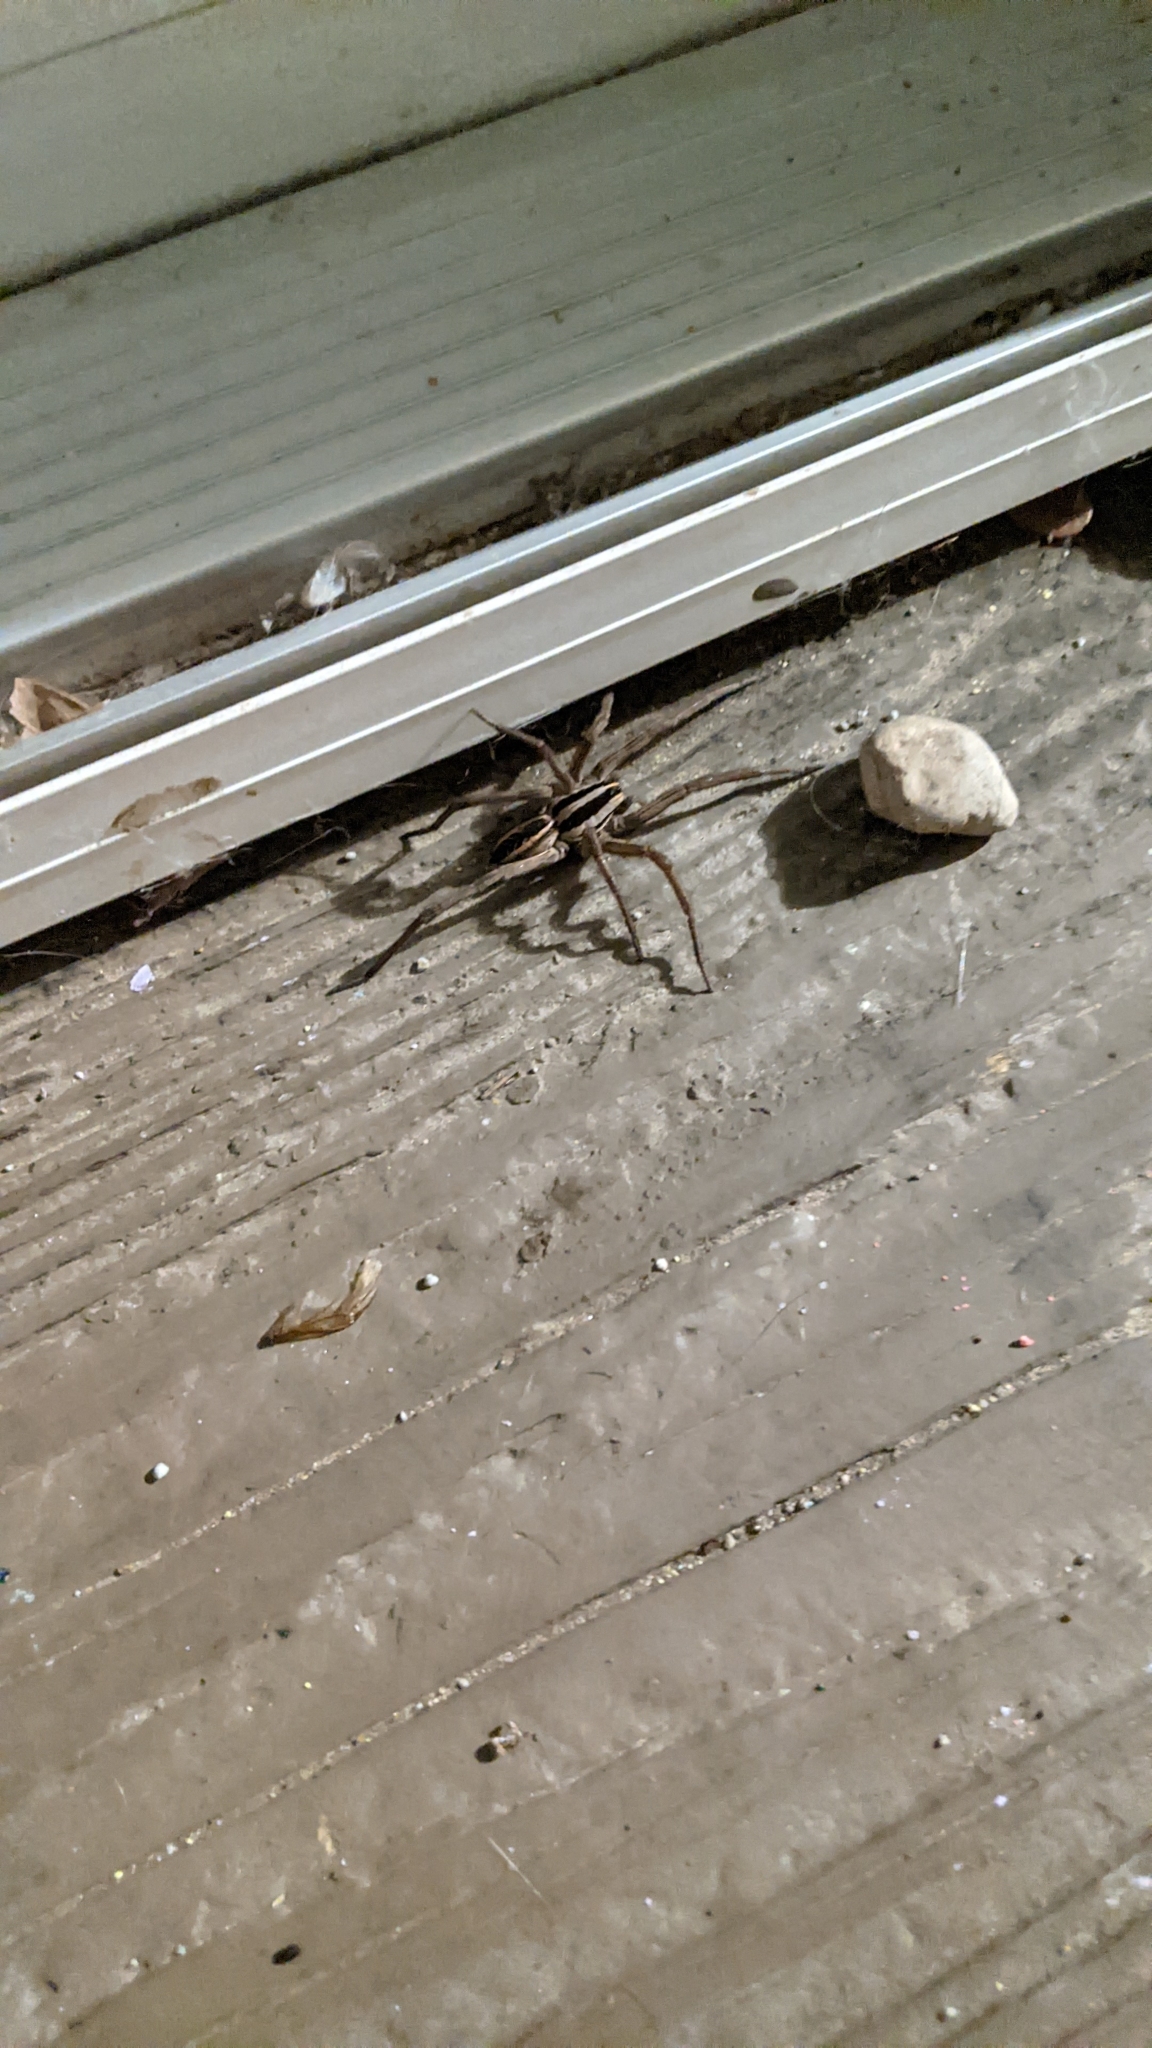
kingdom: Animalia
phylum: Arthropoda
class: Arachnida
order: Araneae
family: Lycosidae
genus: Rabidosa
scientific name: Rabidosa rabida
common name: Rabid wolf spider
